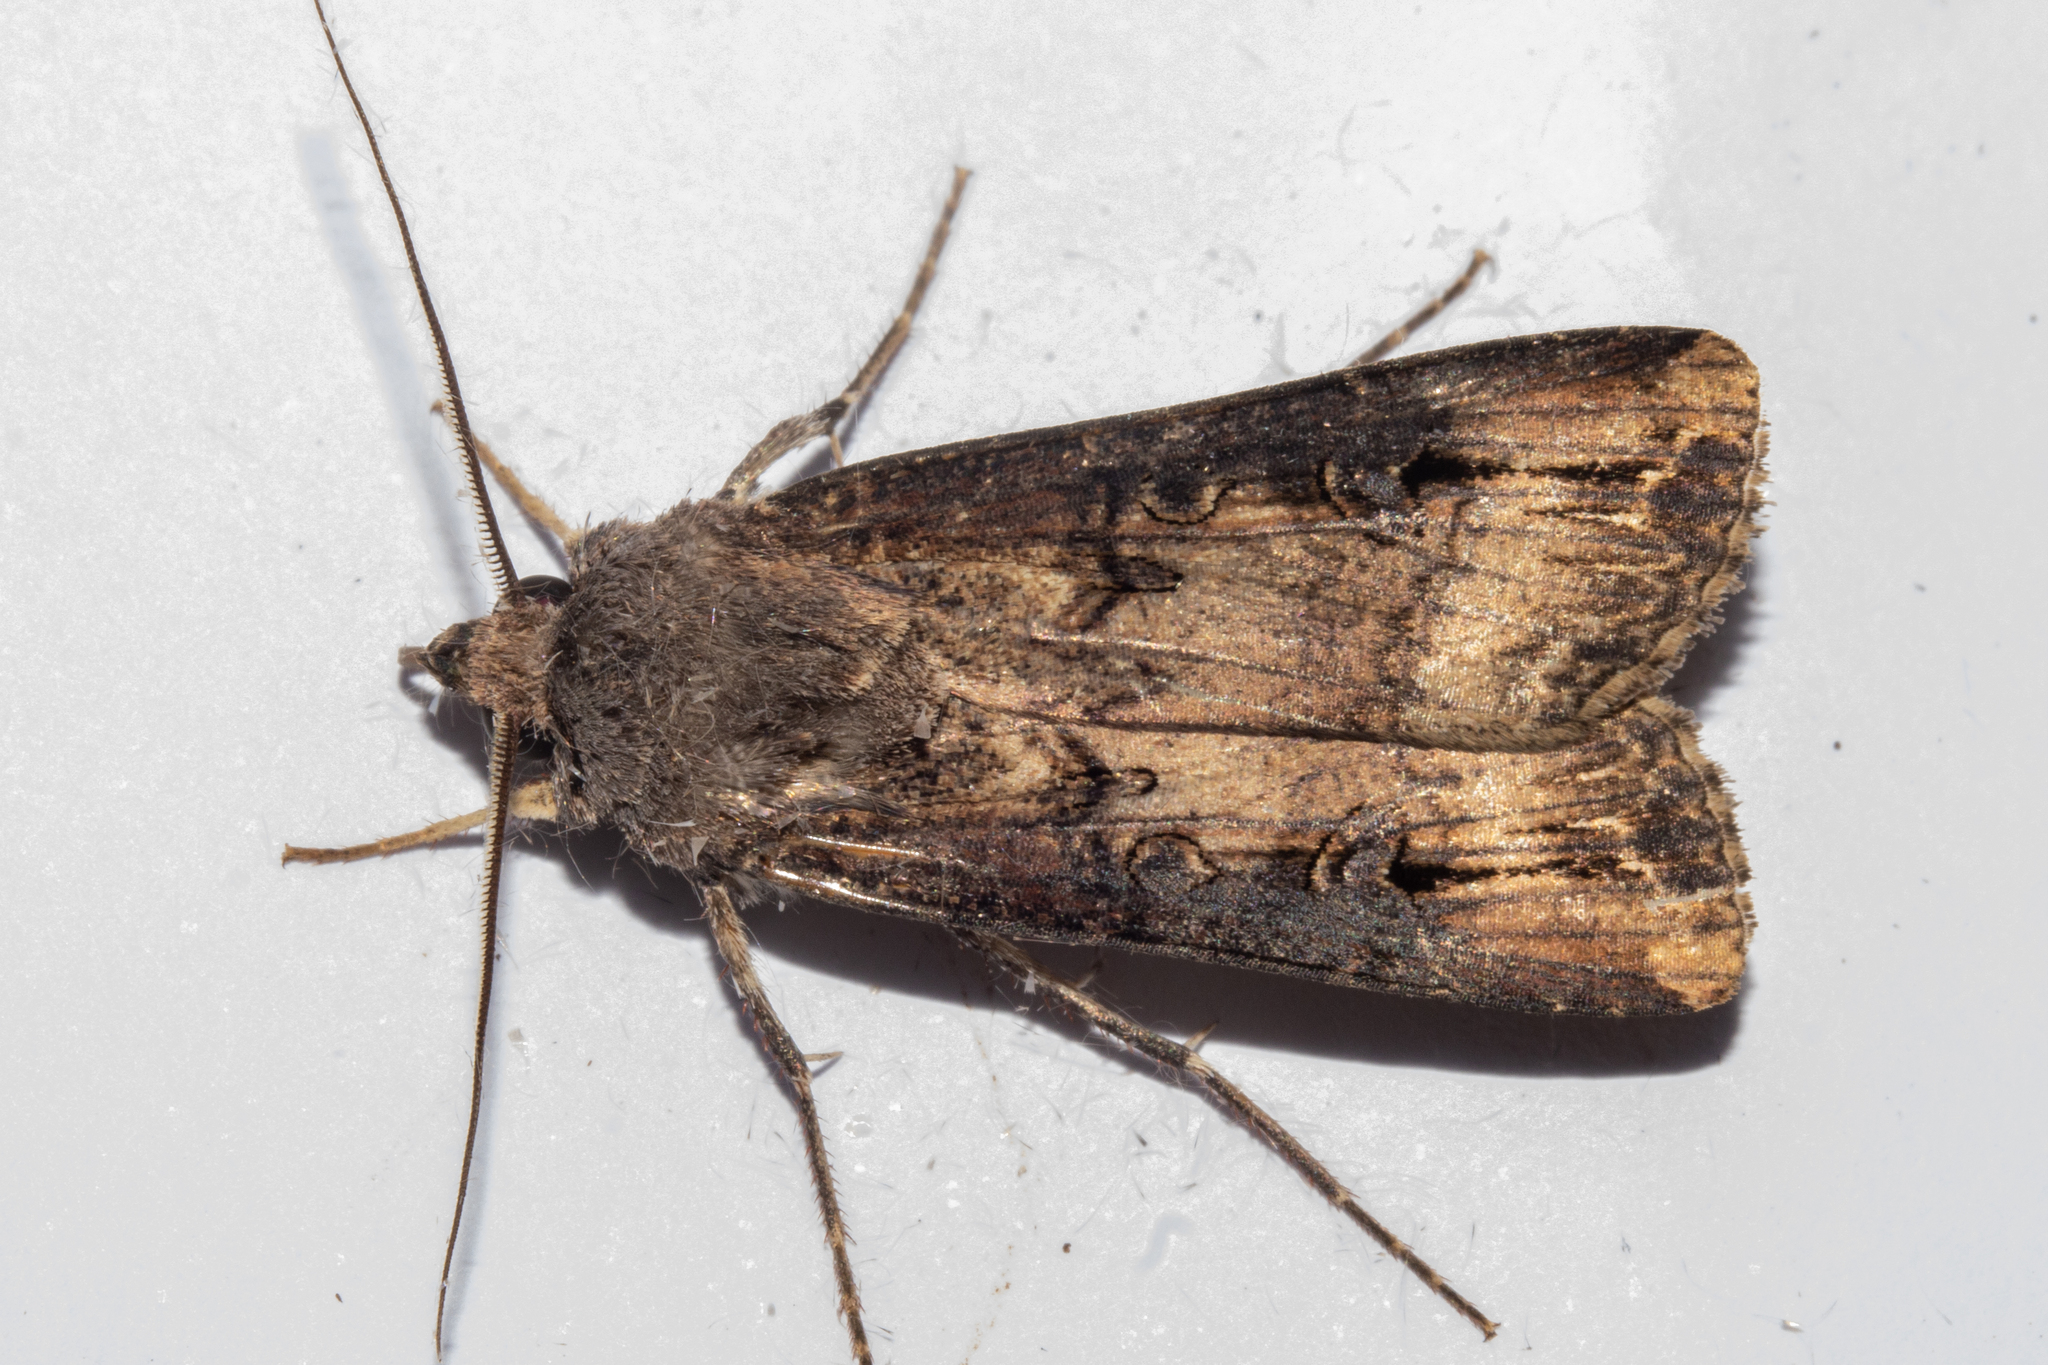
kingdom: Animalia
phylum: Arthropoda
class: Insecta
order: Lepidoptera
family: Noctuidae
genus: Agrotis
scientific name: Agrotis ipsilon
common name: Dark sword-grass
